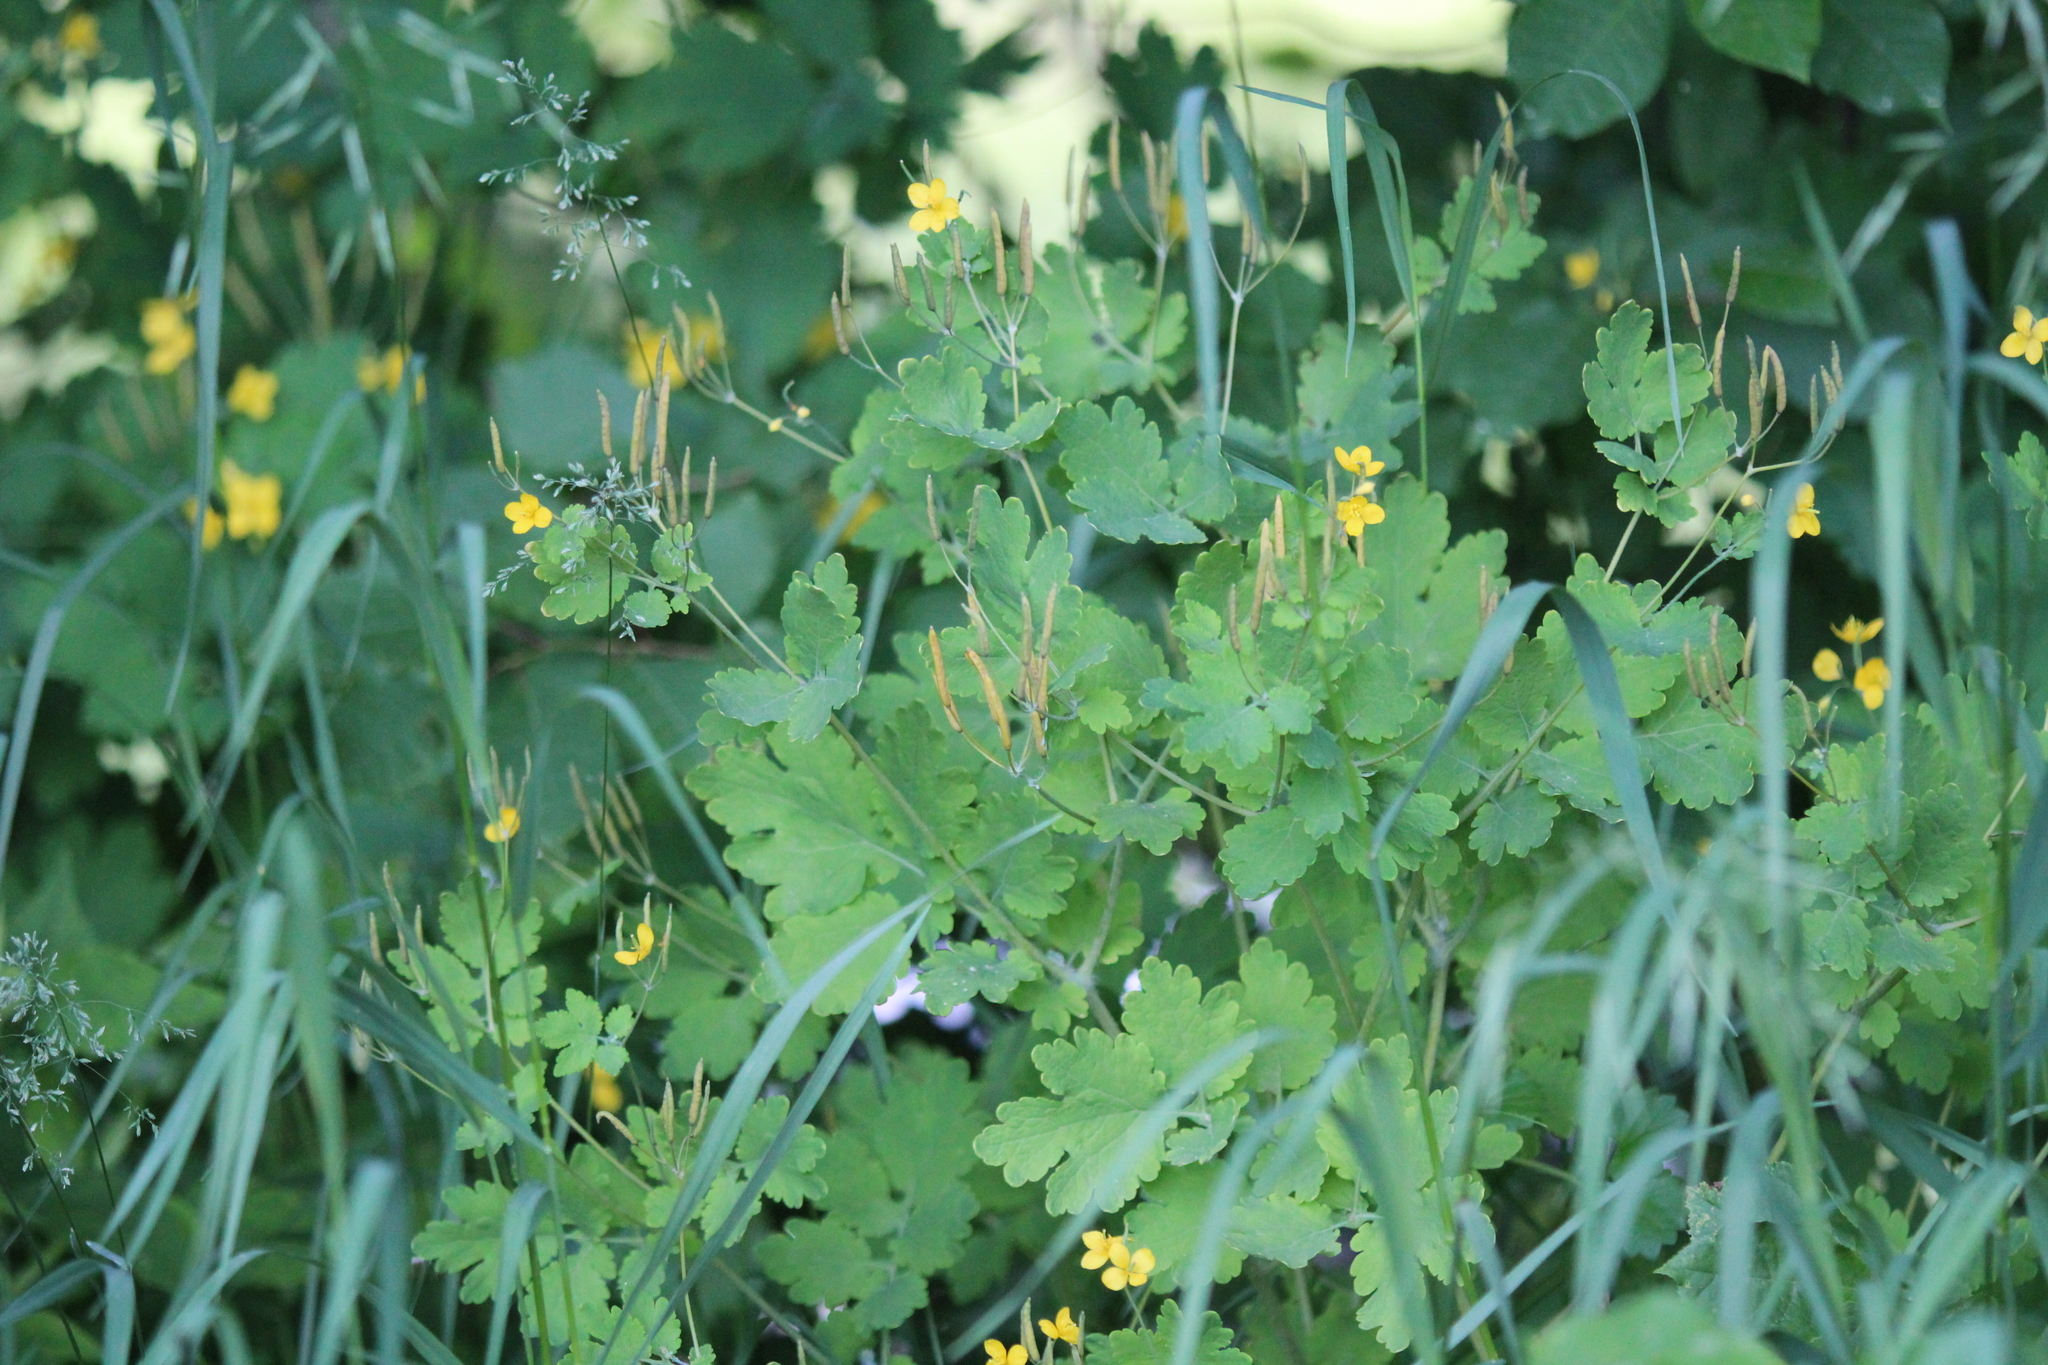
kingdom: Plantae
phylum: Tracheophyta
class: Magnoliopsida
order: Ranunculales
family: Papaveraceae
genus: Chelidonium
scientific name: Chelidonium majus
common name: Greater celandine
